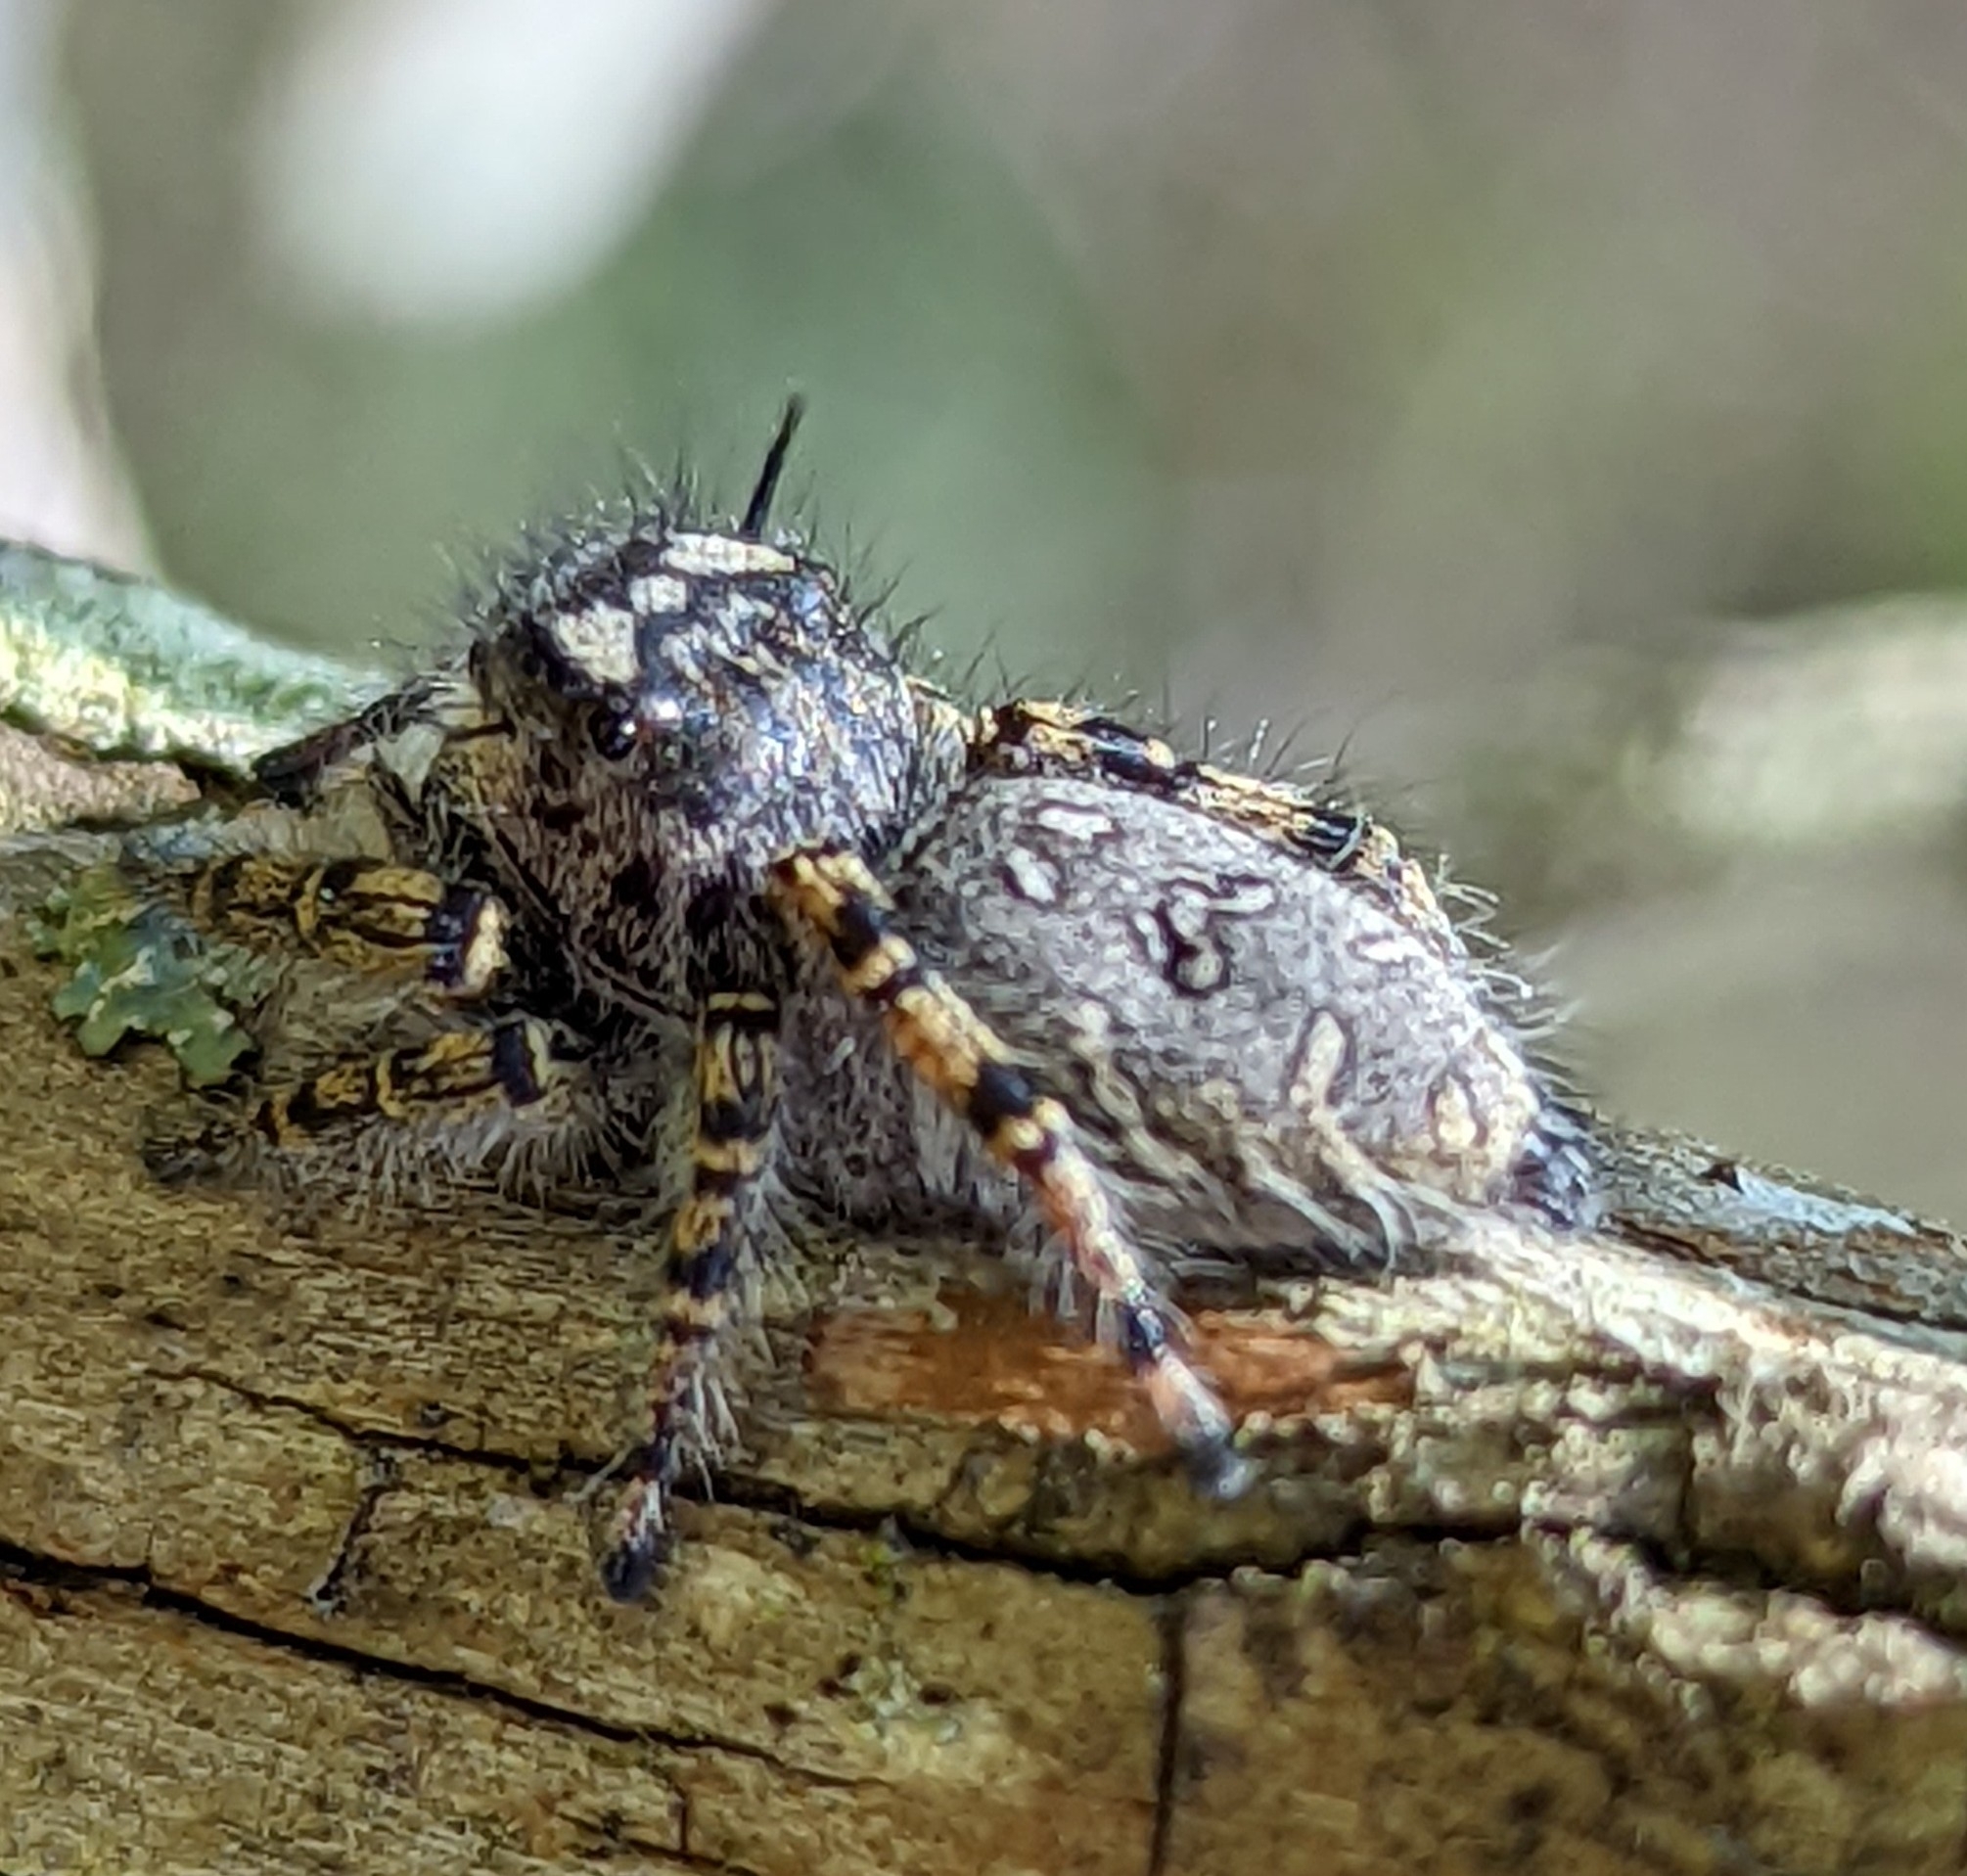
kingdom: Animalia
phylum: Arthropoda
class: Arachnida
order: Araneae
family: Salticidae
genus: Phidippus
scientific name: Phidippus mystaceus
